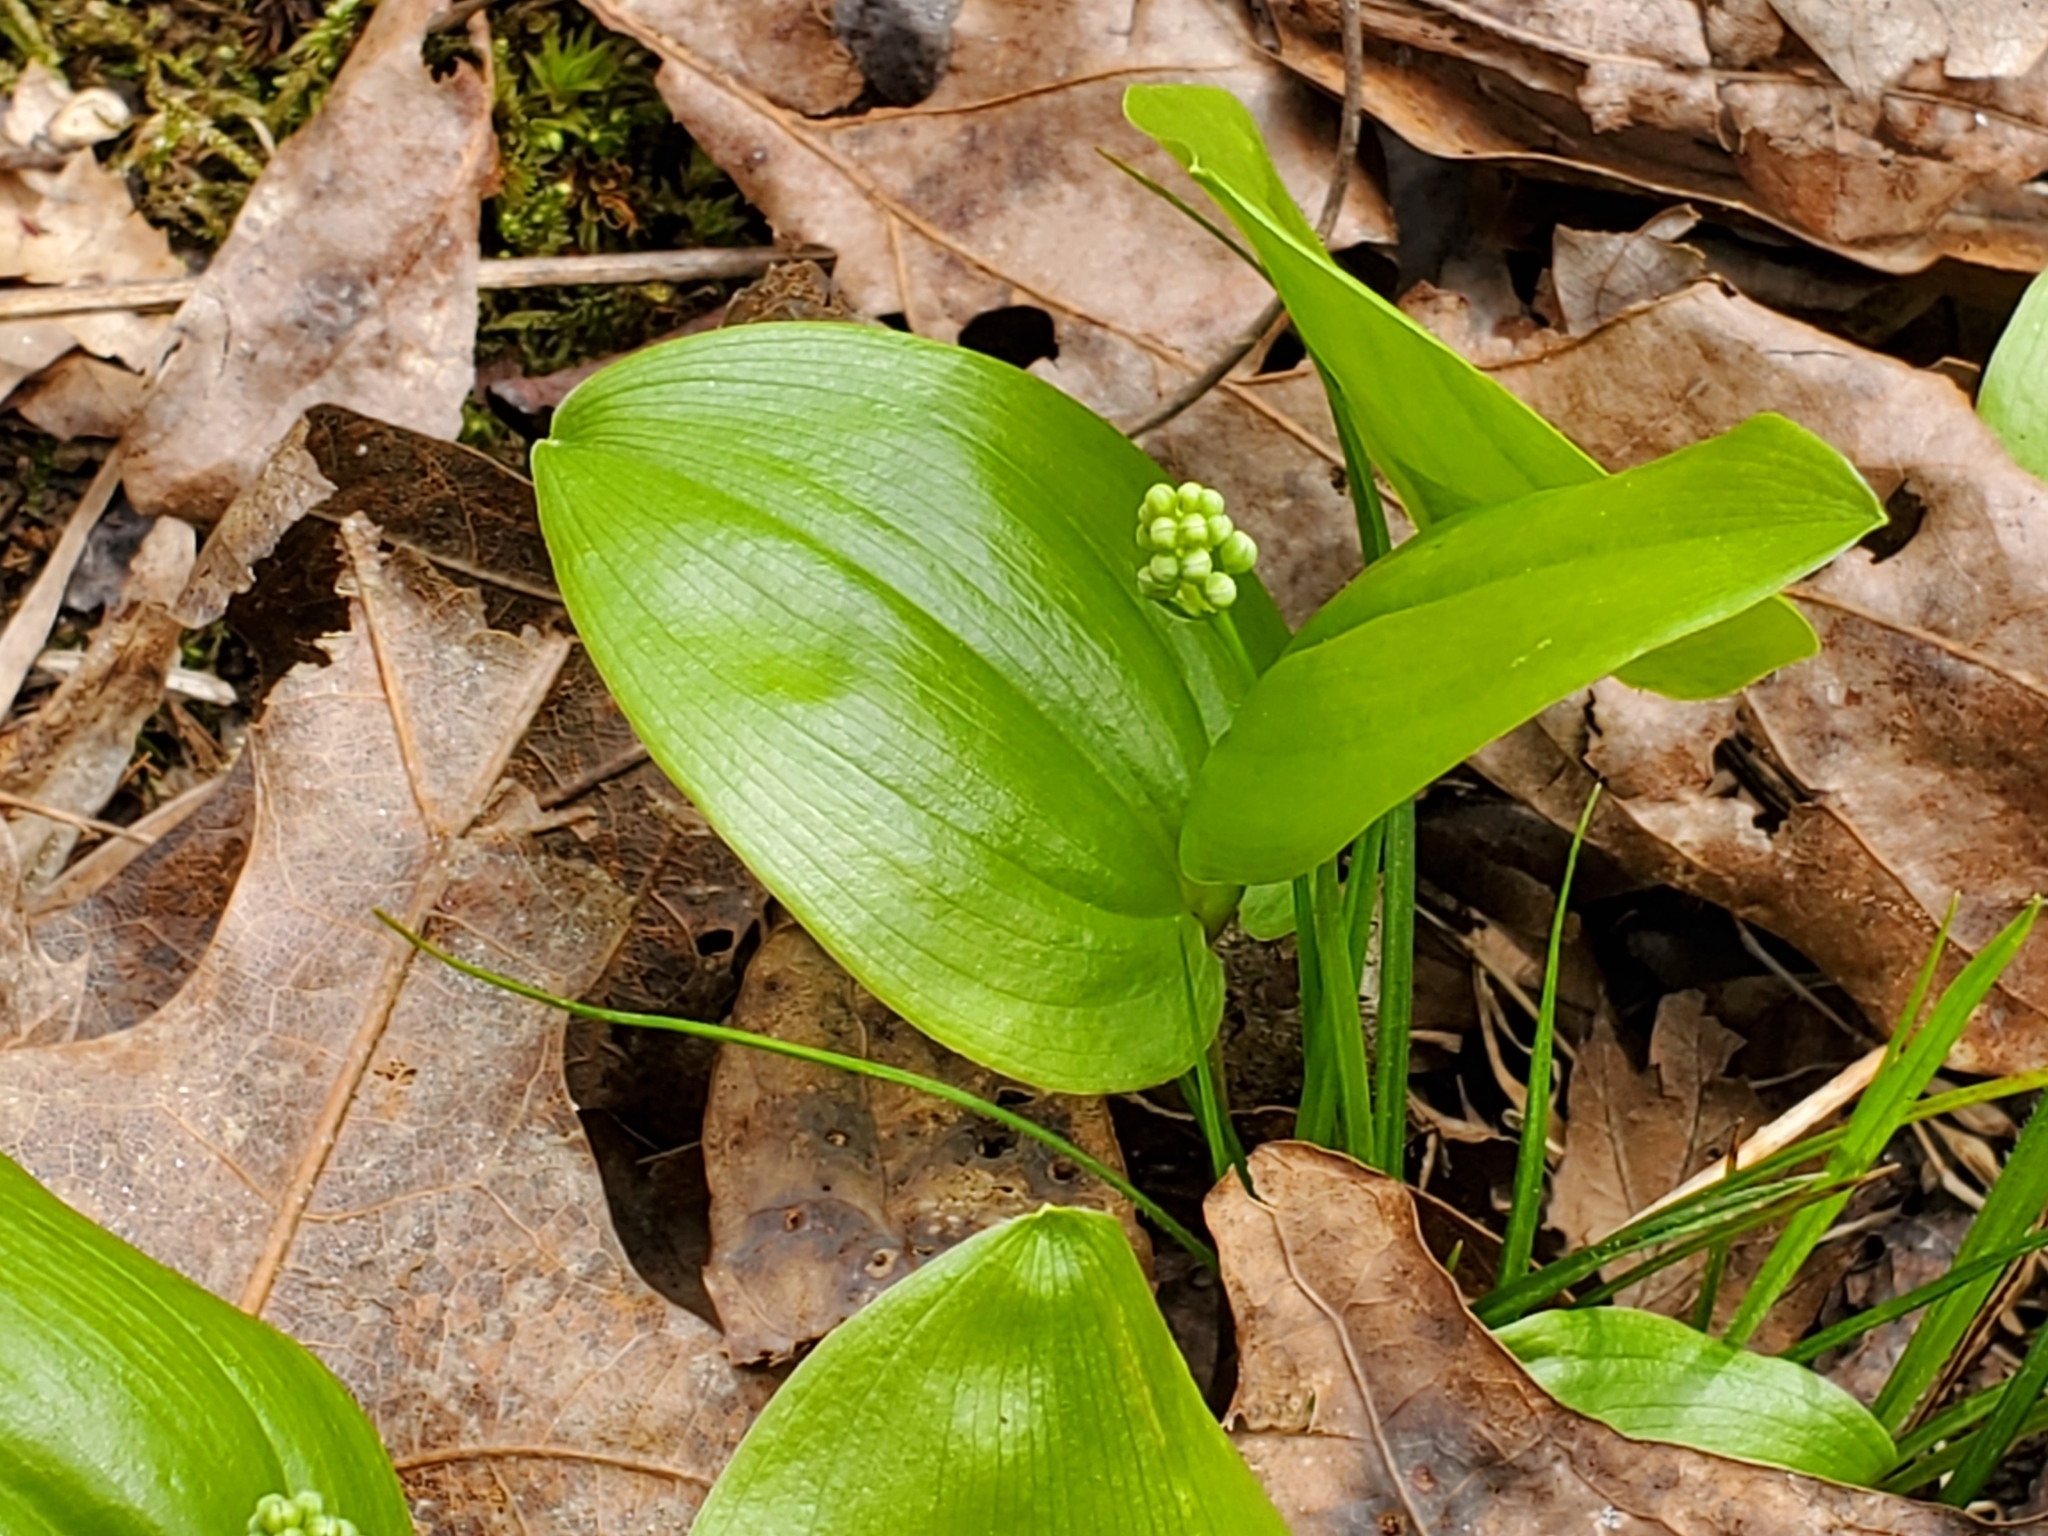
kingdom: Plantae
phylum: Tracheophyta
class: Liliopsida
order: Asparagales
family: Asparagaceae
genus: Maianthemum
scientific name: Maianthemum canadense
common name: False lily-of-the-valley
